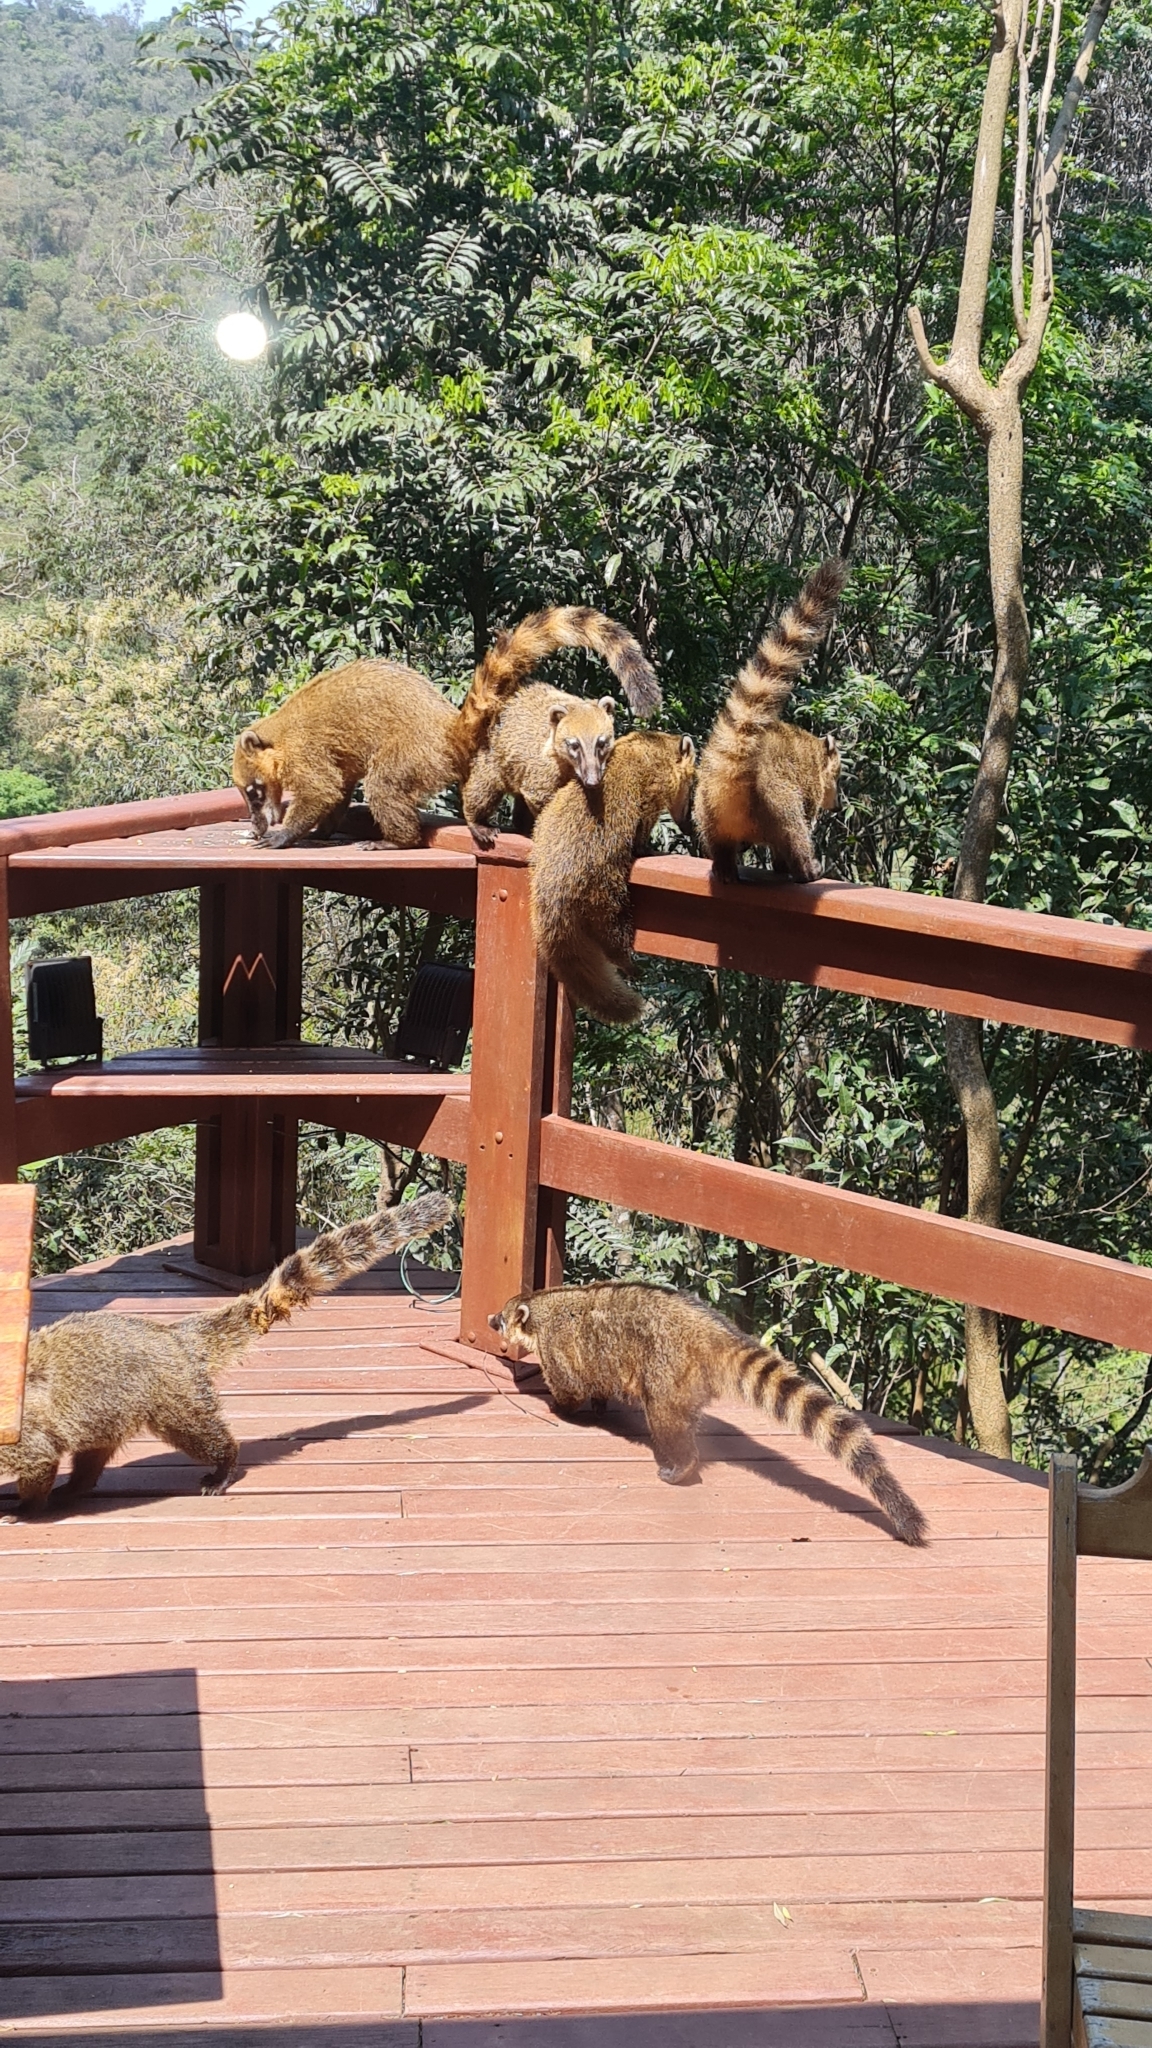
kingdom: Animalia
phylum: Chordata
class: Mammalia
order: Carnivora
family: Procyonidae
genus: Nasua
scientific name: Nasua nasua
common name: South american coati
